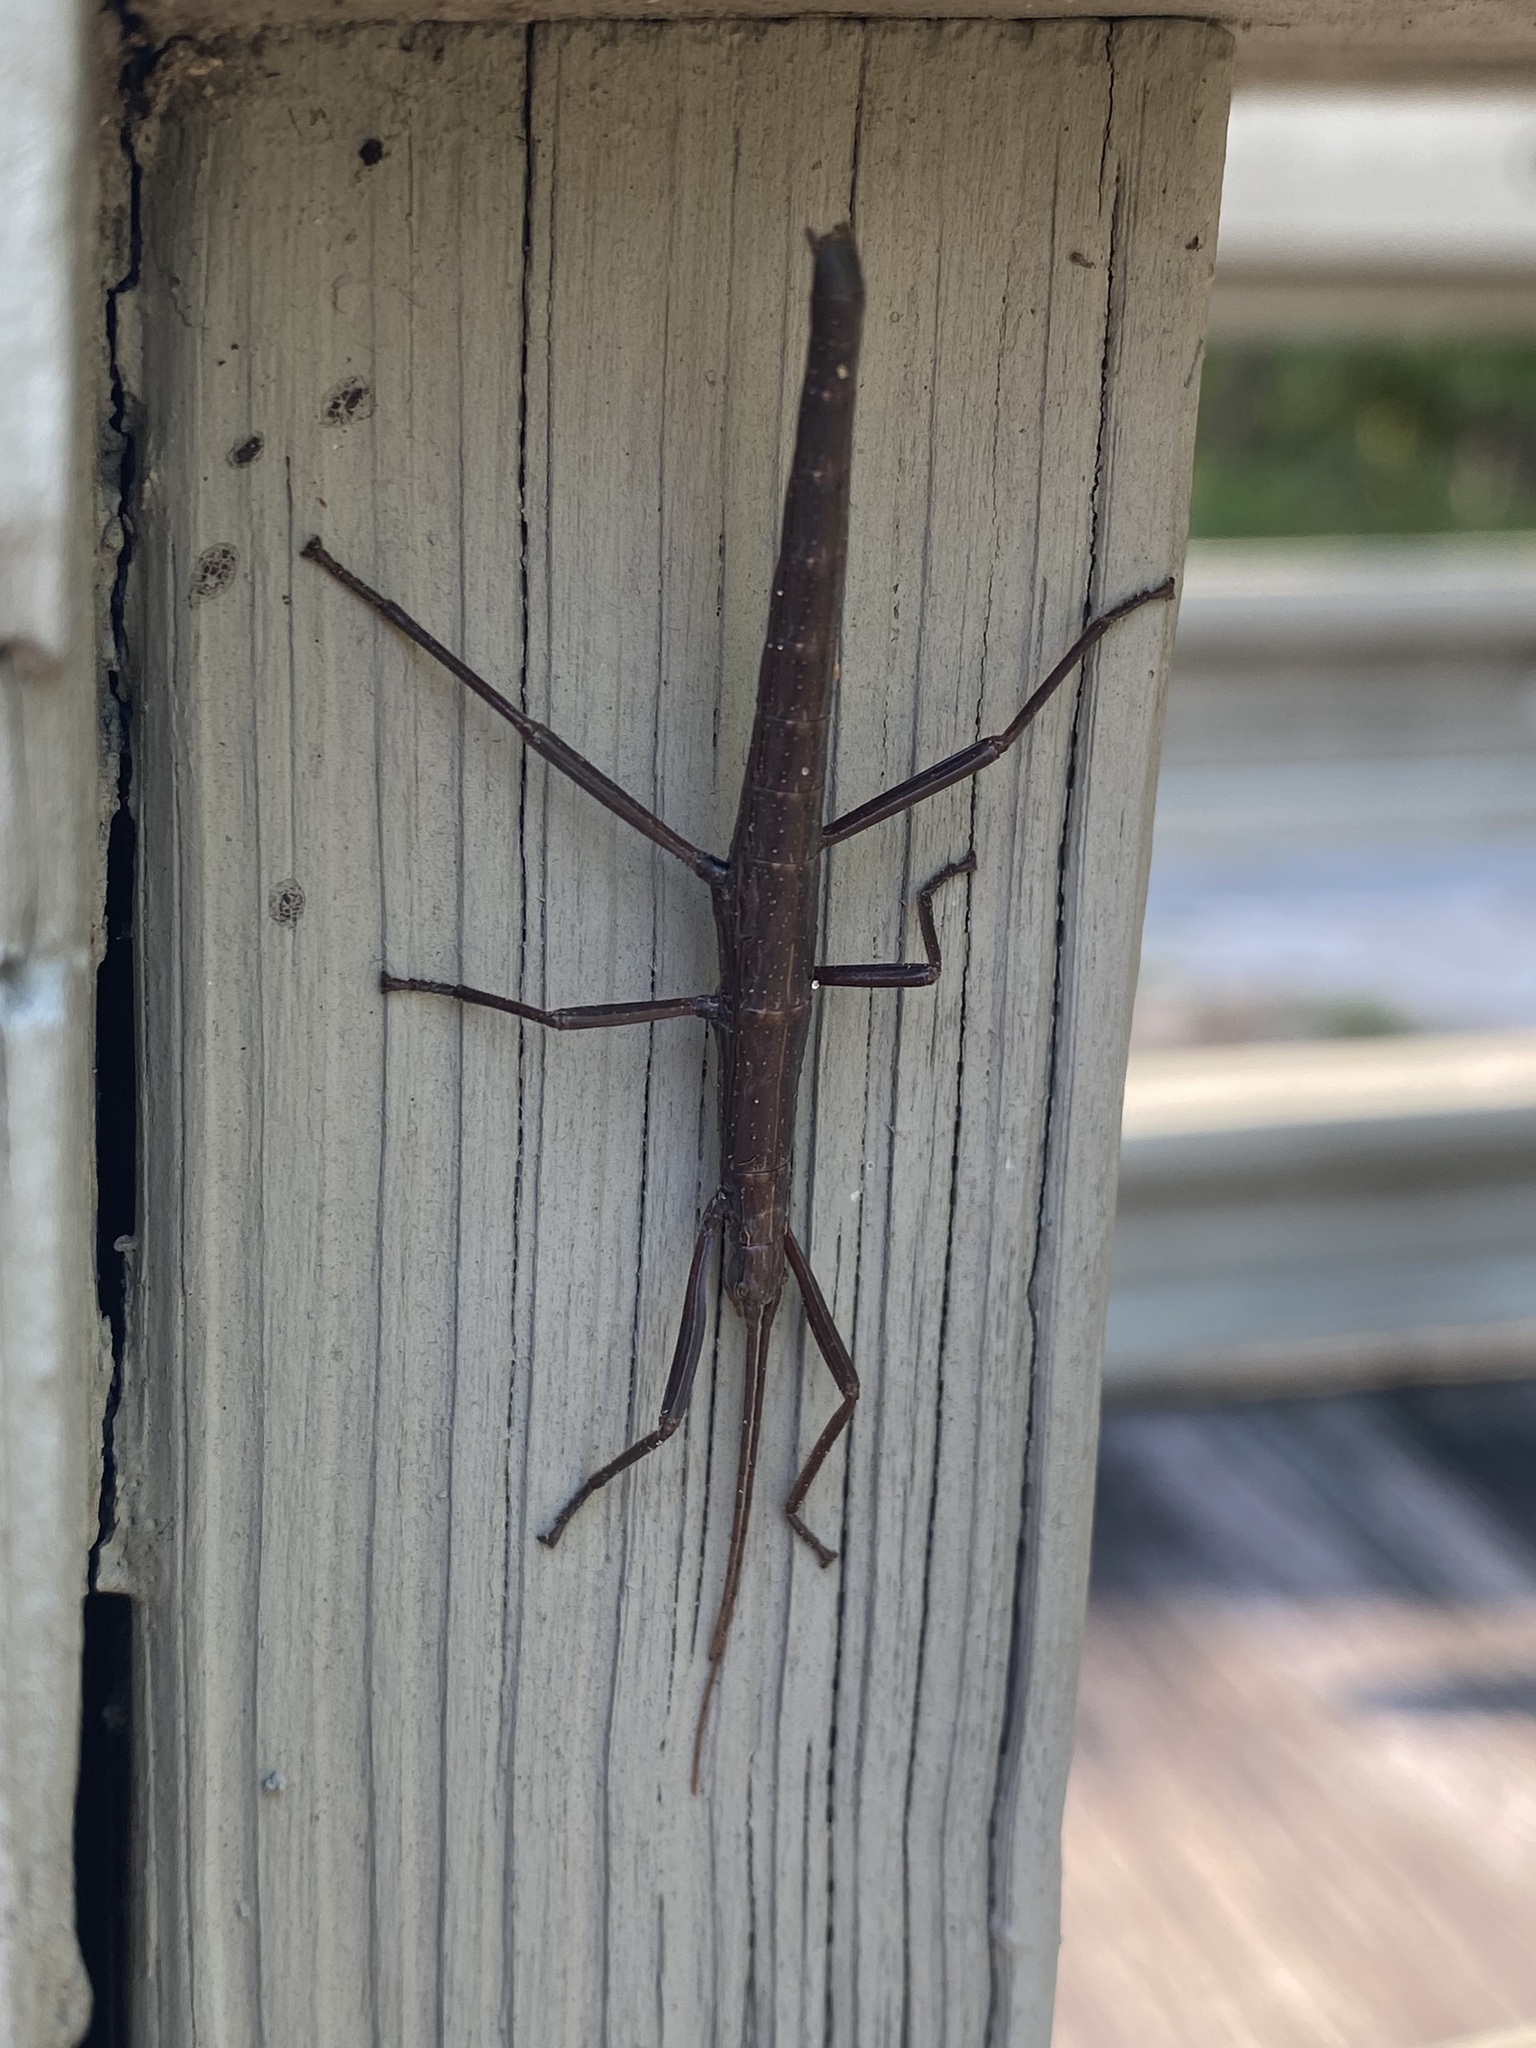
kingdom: Animalia
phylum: Arthropoda
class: Insecta
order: Phasmida
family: Pseudophasmatidae
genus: Anisomorpha
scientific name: Anisomorpha buprestoides
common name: Florida stick insect
